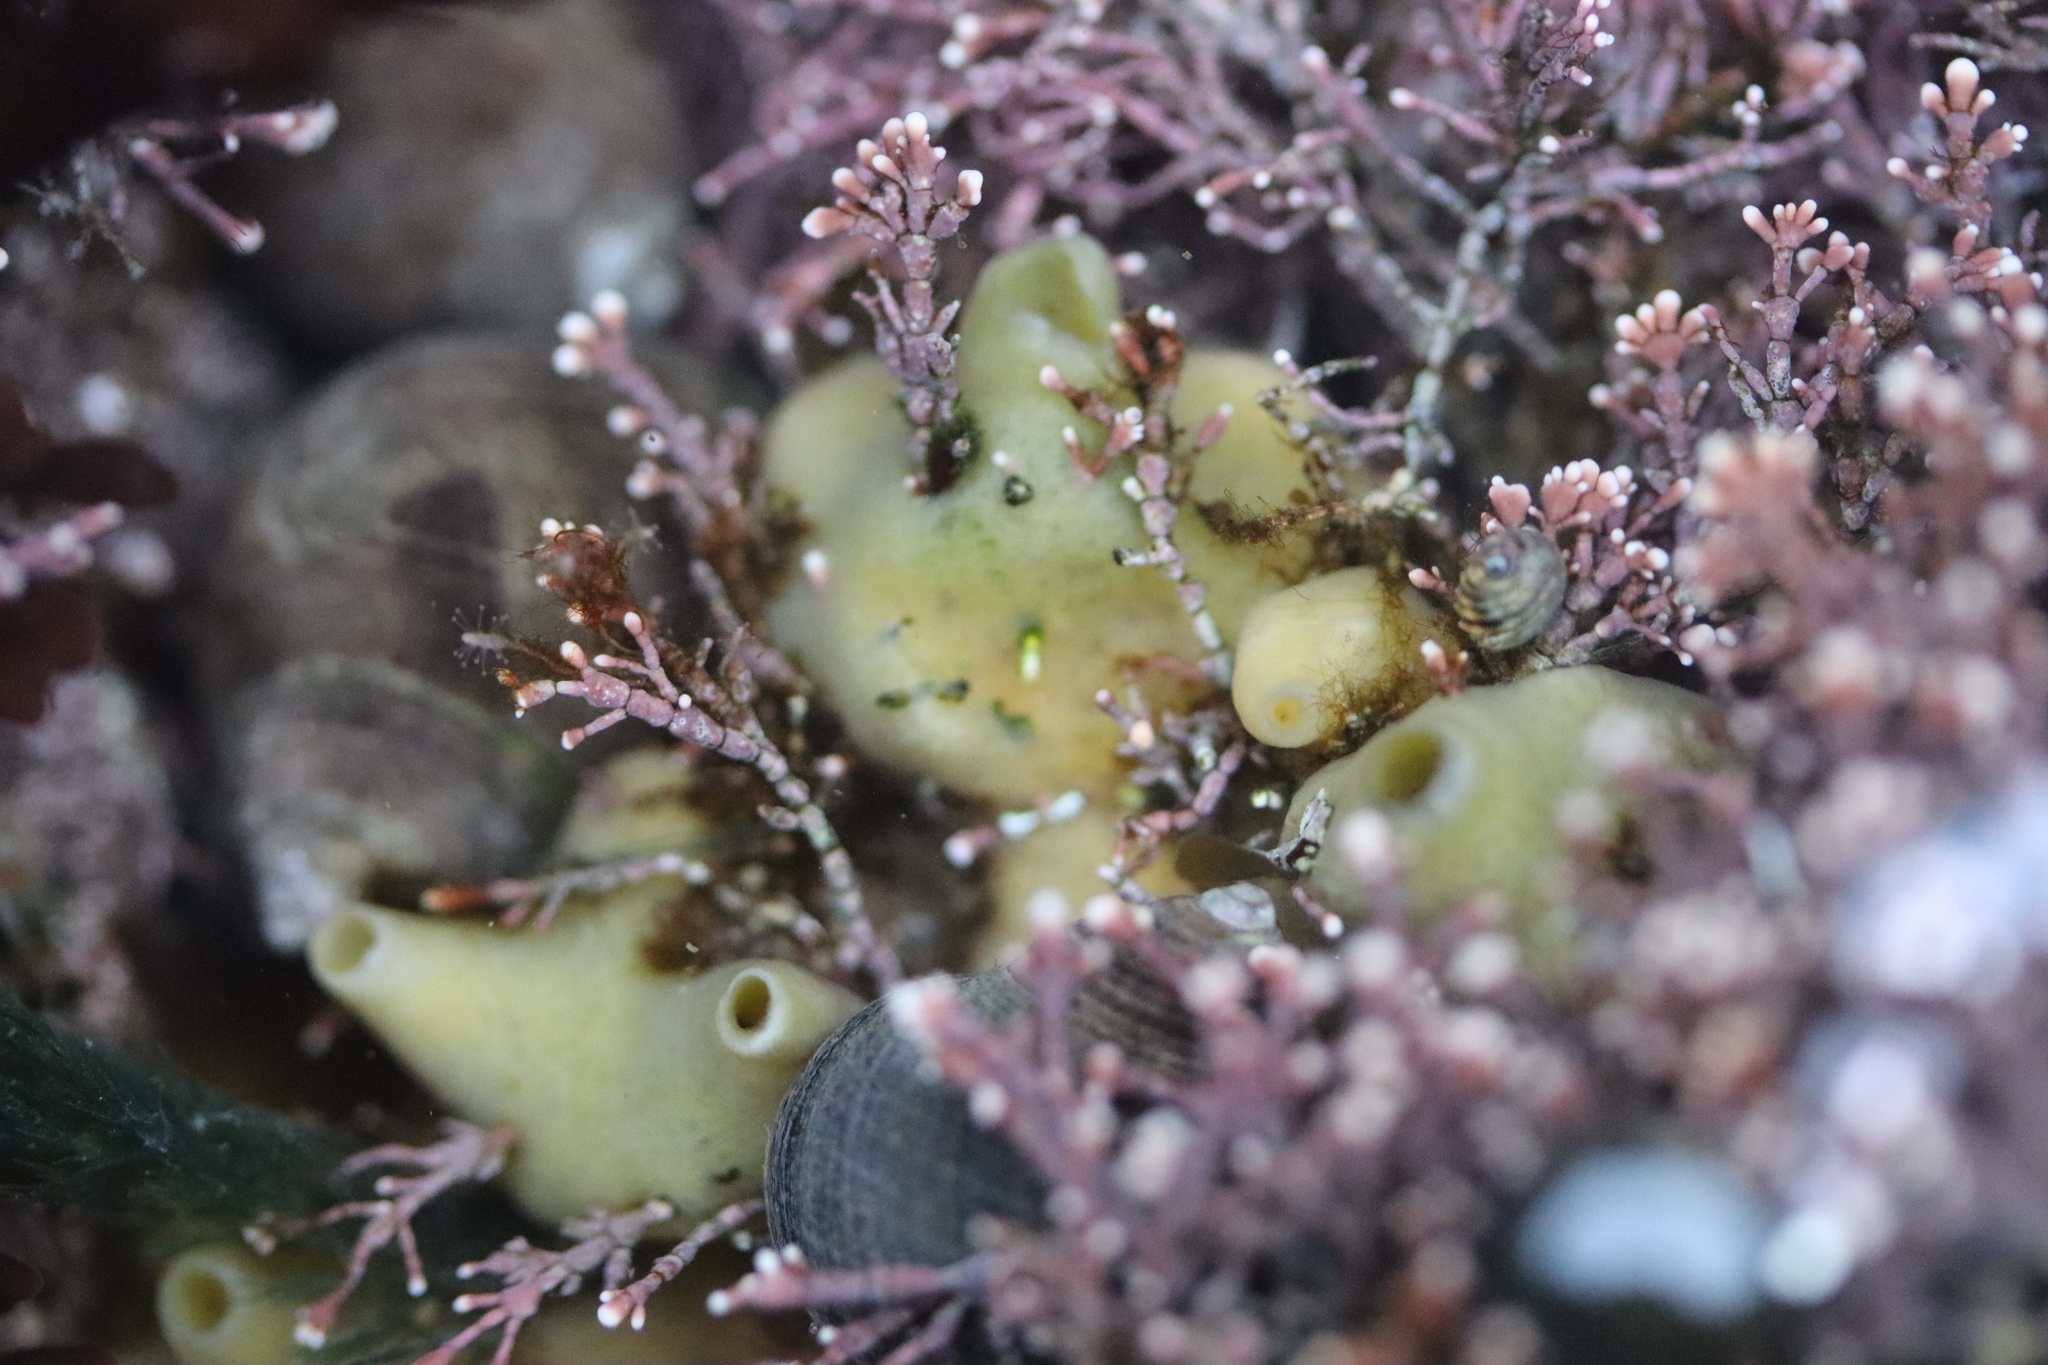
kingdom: Animalia
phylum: Porifera
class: Demospongiae
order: Suberitida
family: Halichondriidae
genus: Halichondria
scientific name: Halichondria panicea
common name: Breadcrumb sponge
